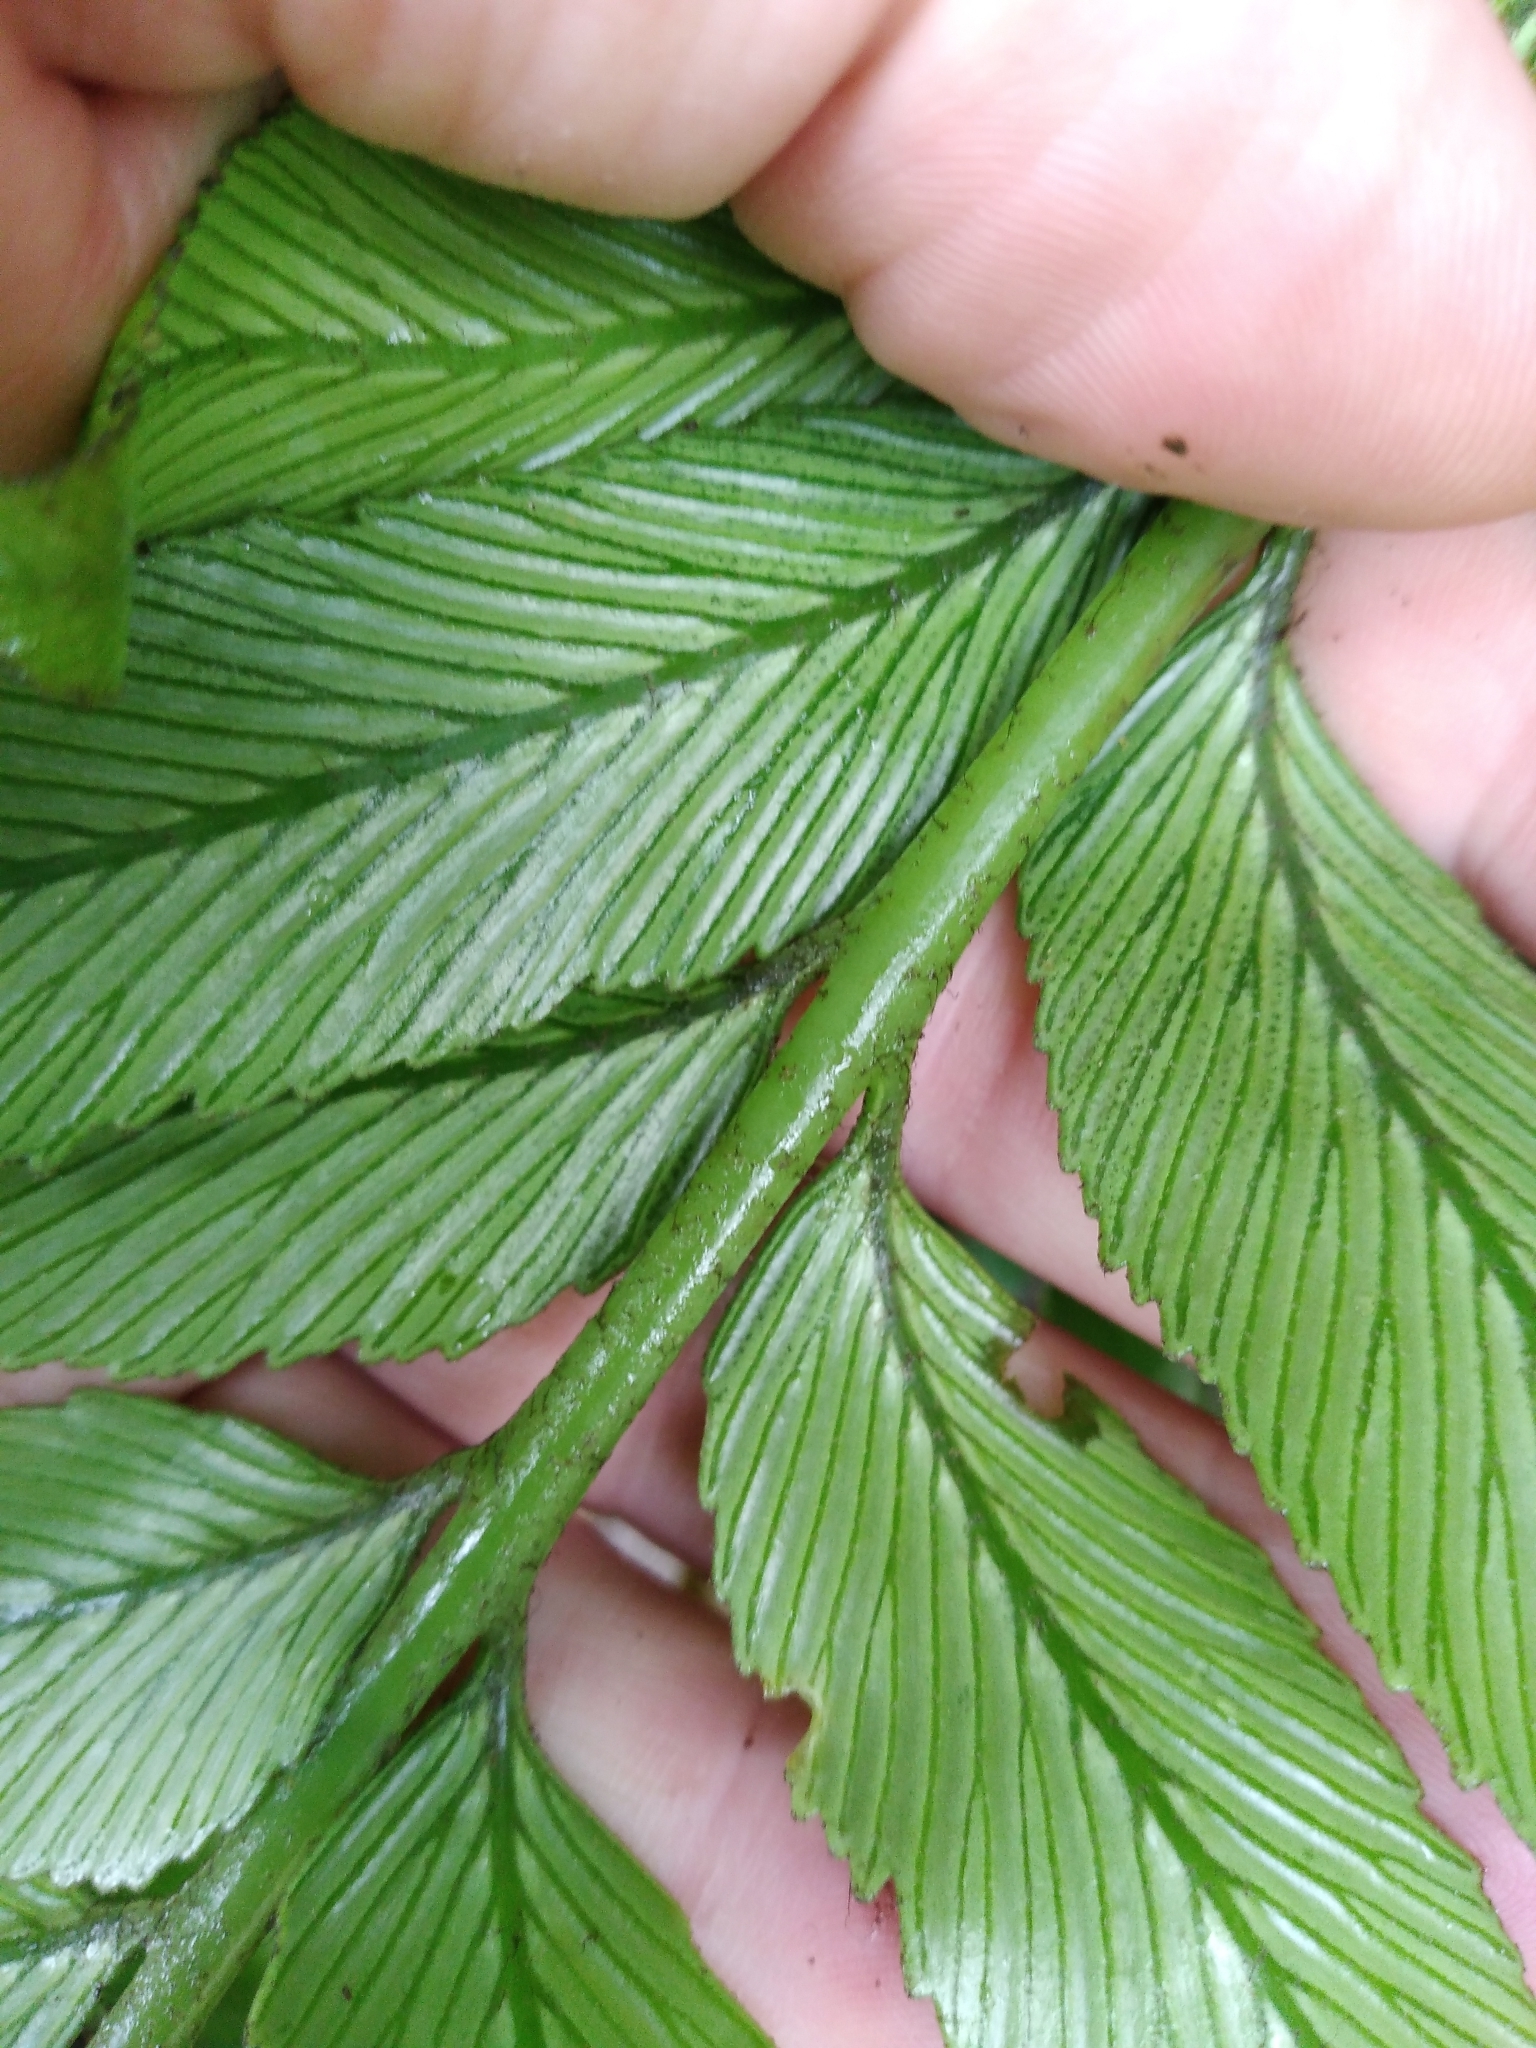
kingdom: Plantae
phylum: Tracheophyta
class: Polypodiopsida
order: Polypodiales
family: Aspleniaceae
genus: Asplenium
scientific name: Asplenium oblongifolium
